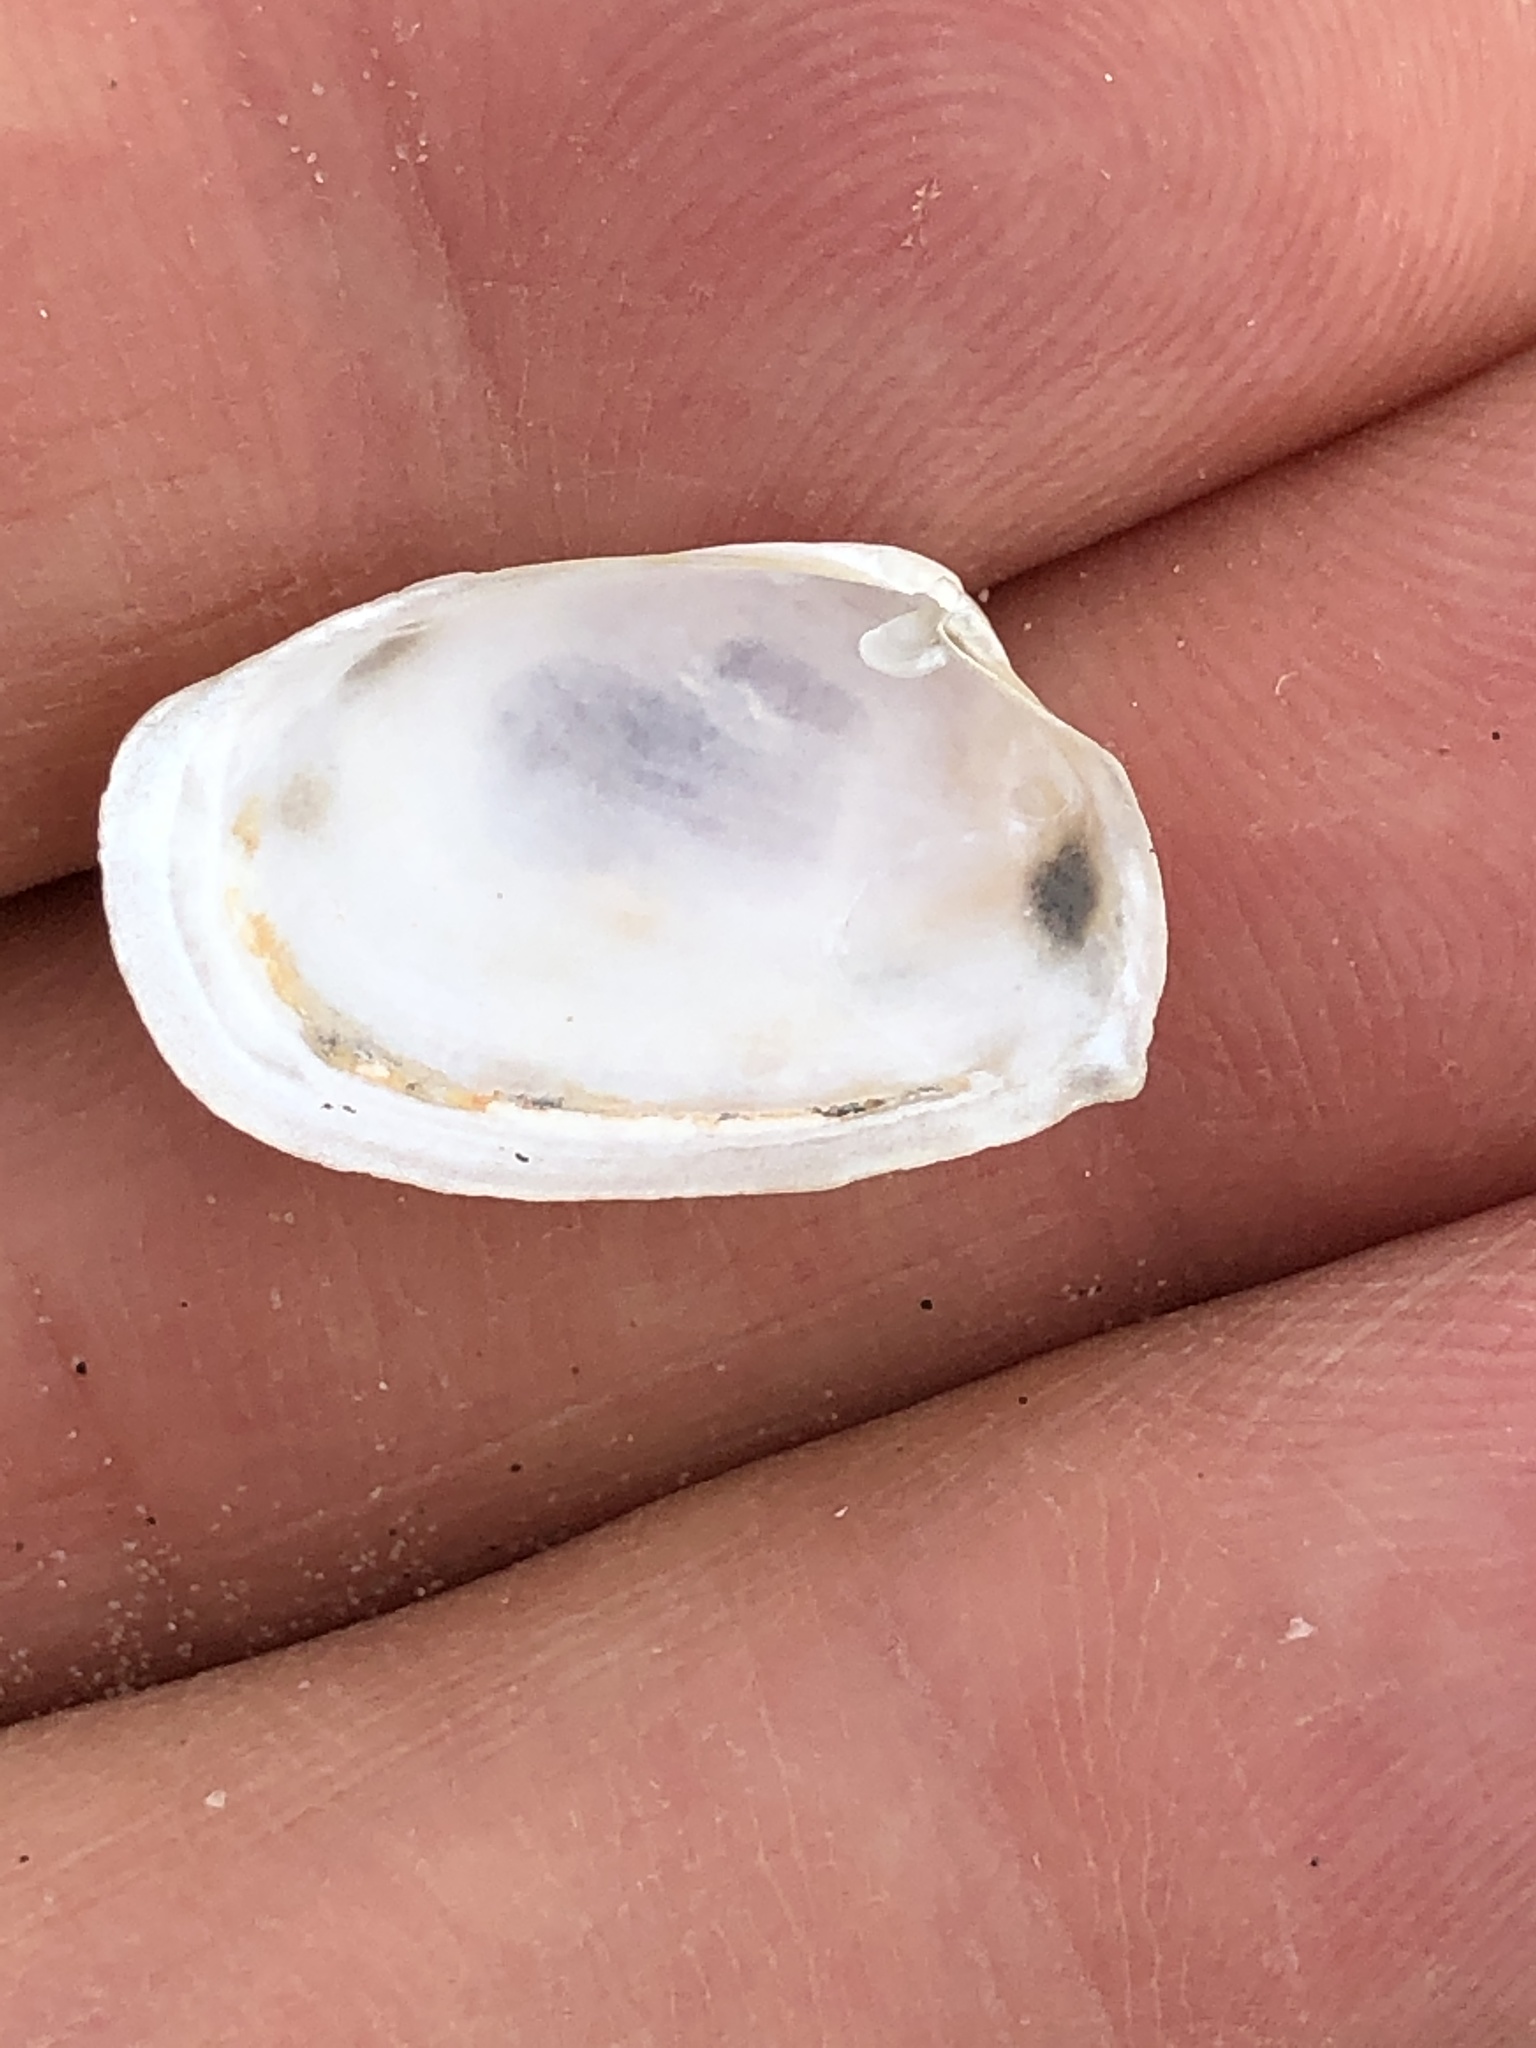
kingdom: Animalia
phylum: Mollusca
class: Bivalvia
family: Periplomatidae
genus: Periploma
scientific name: Periploma inequale
